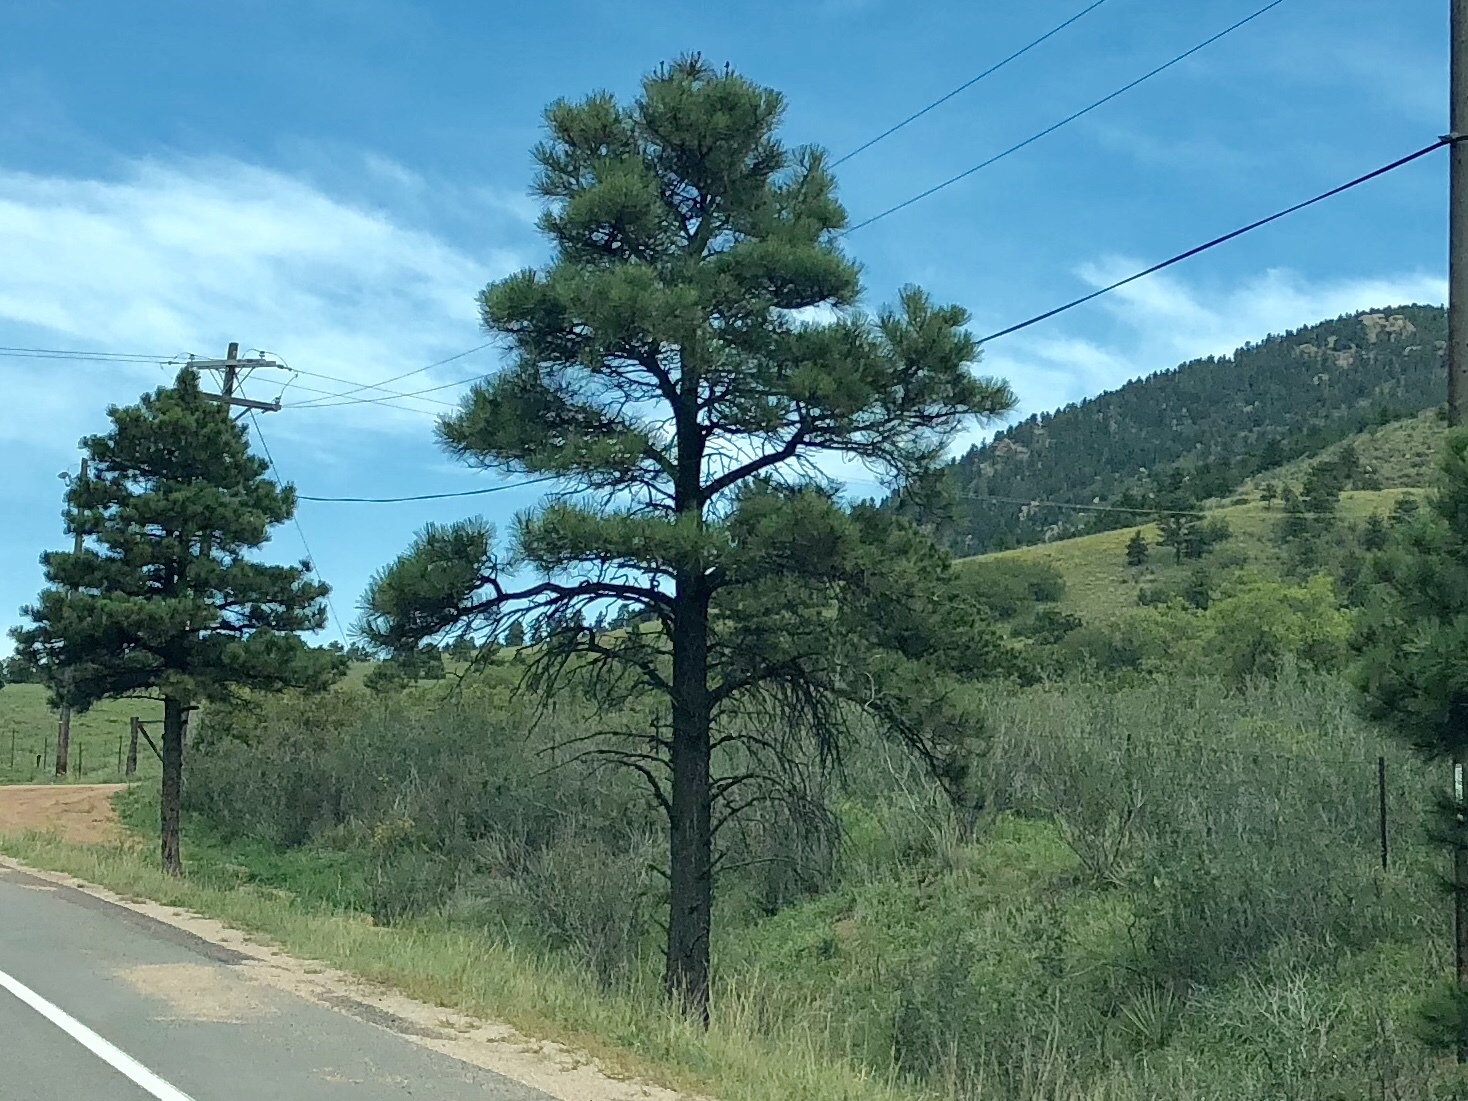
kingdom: Plantae
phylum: Tracheophyta
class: Pinopsida
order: Pinales
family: Pinaceae
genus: Pinus
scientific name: Pinus ponderosa
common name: Western yellow-pine
